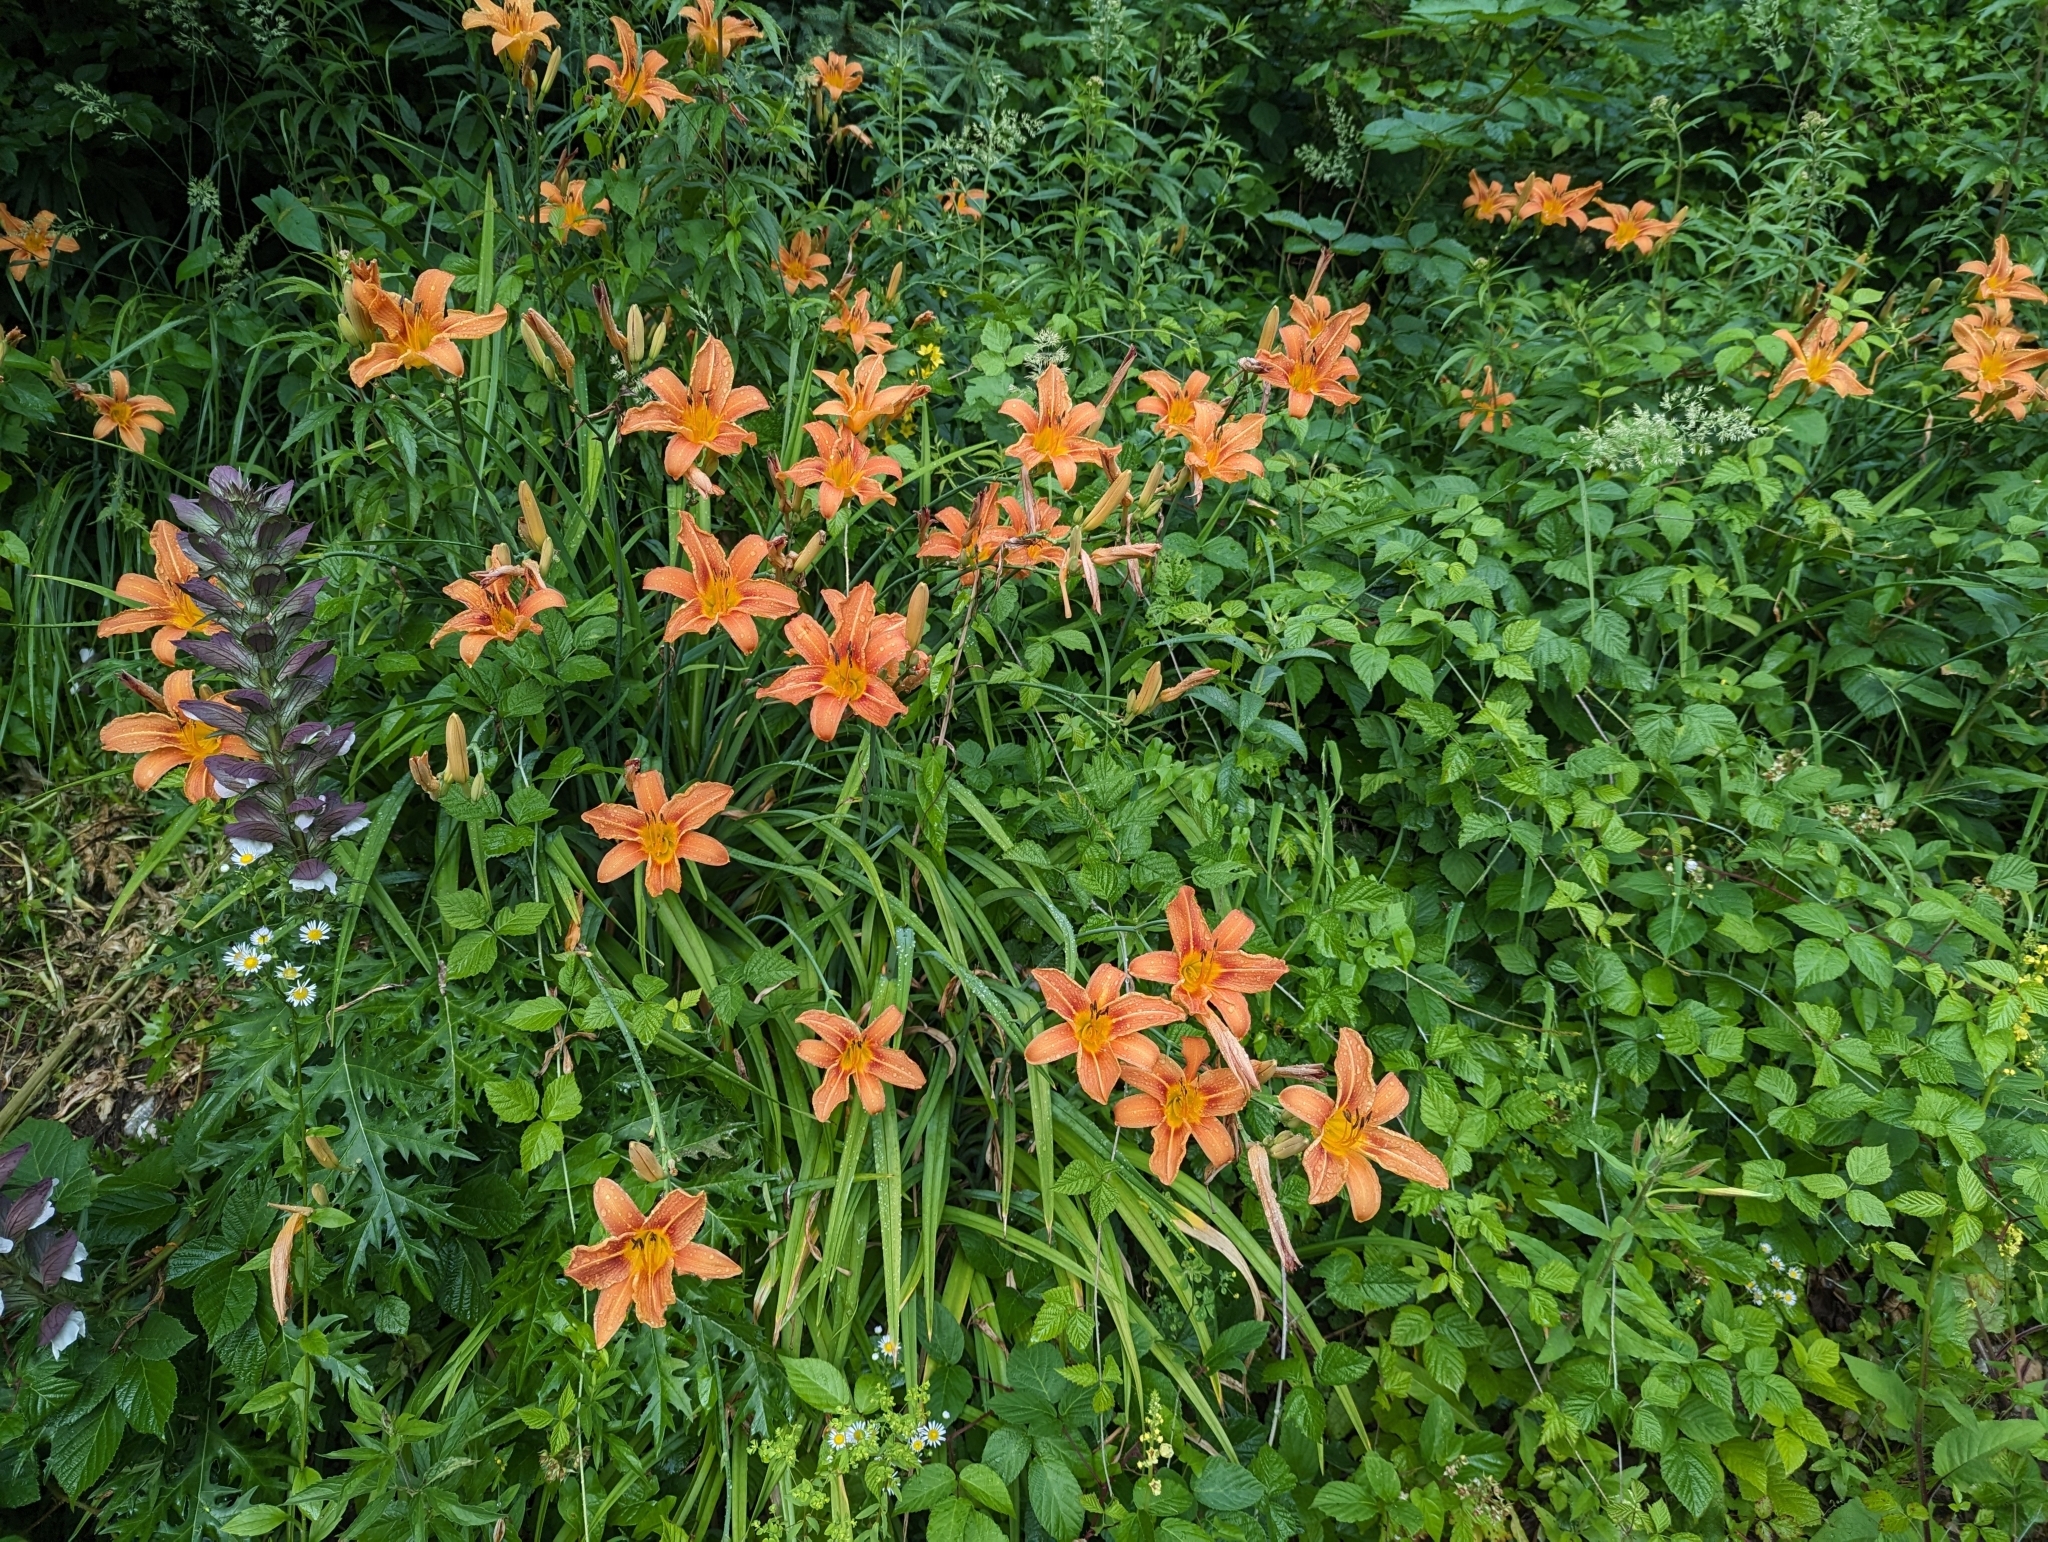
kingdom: Plantae
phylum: Tracheophyta
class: Liliopsida
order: Asparagales
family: Asphodelaceae
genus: Hemerocallis
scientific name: Hemerocallis fulva
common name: Orange day-lily
